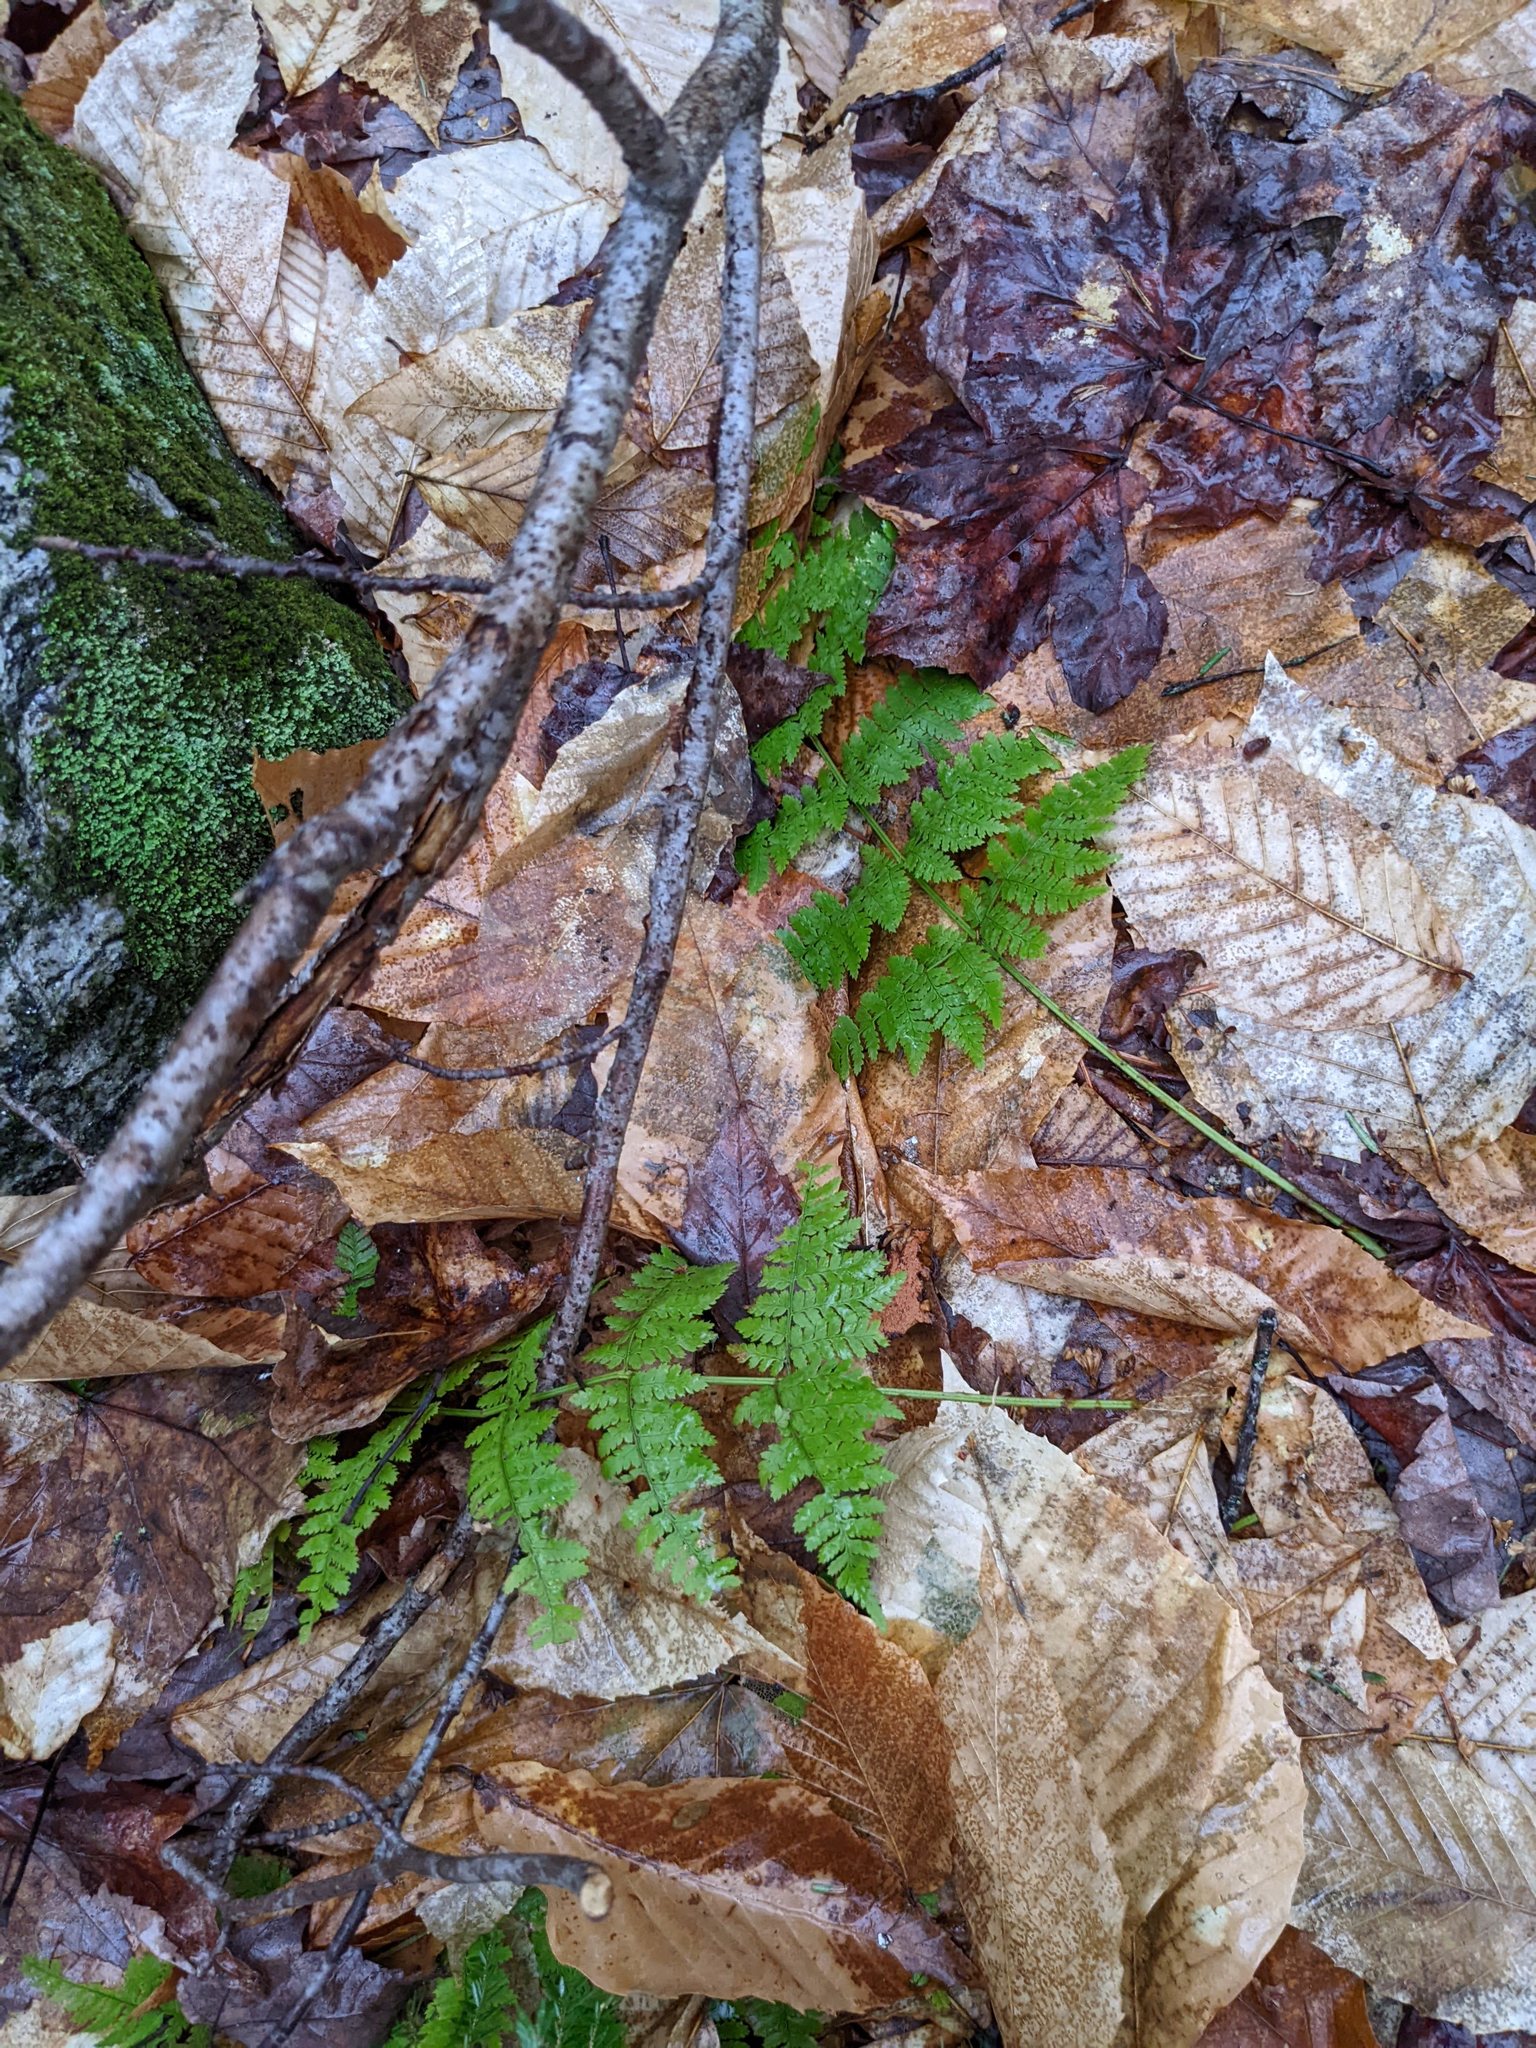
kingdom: Plantae
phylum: Tracheophyta
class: Polypodiopsida
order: Polypodiales
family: Dryopteridaceae
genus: Dryopteris
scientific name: Dryopteris intermedia
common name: Evergreen wood fern
